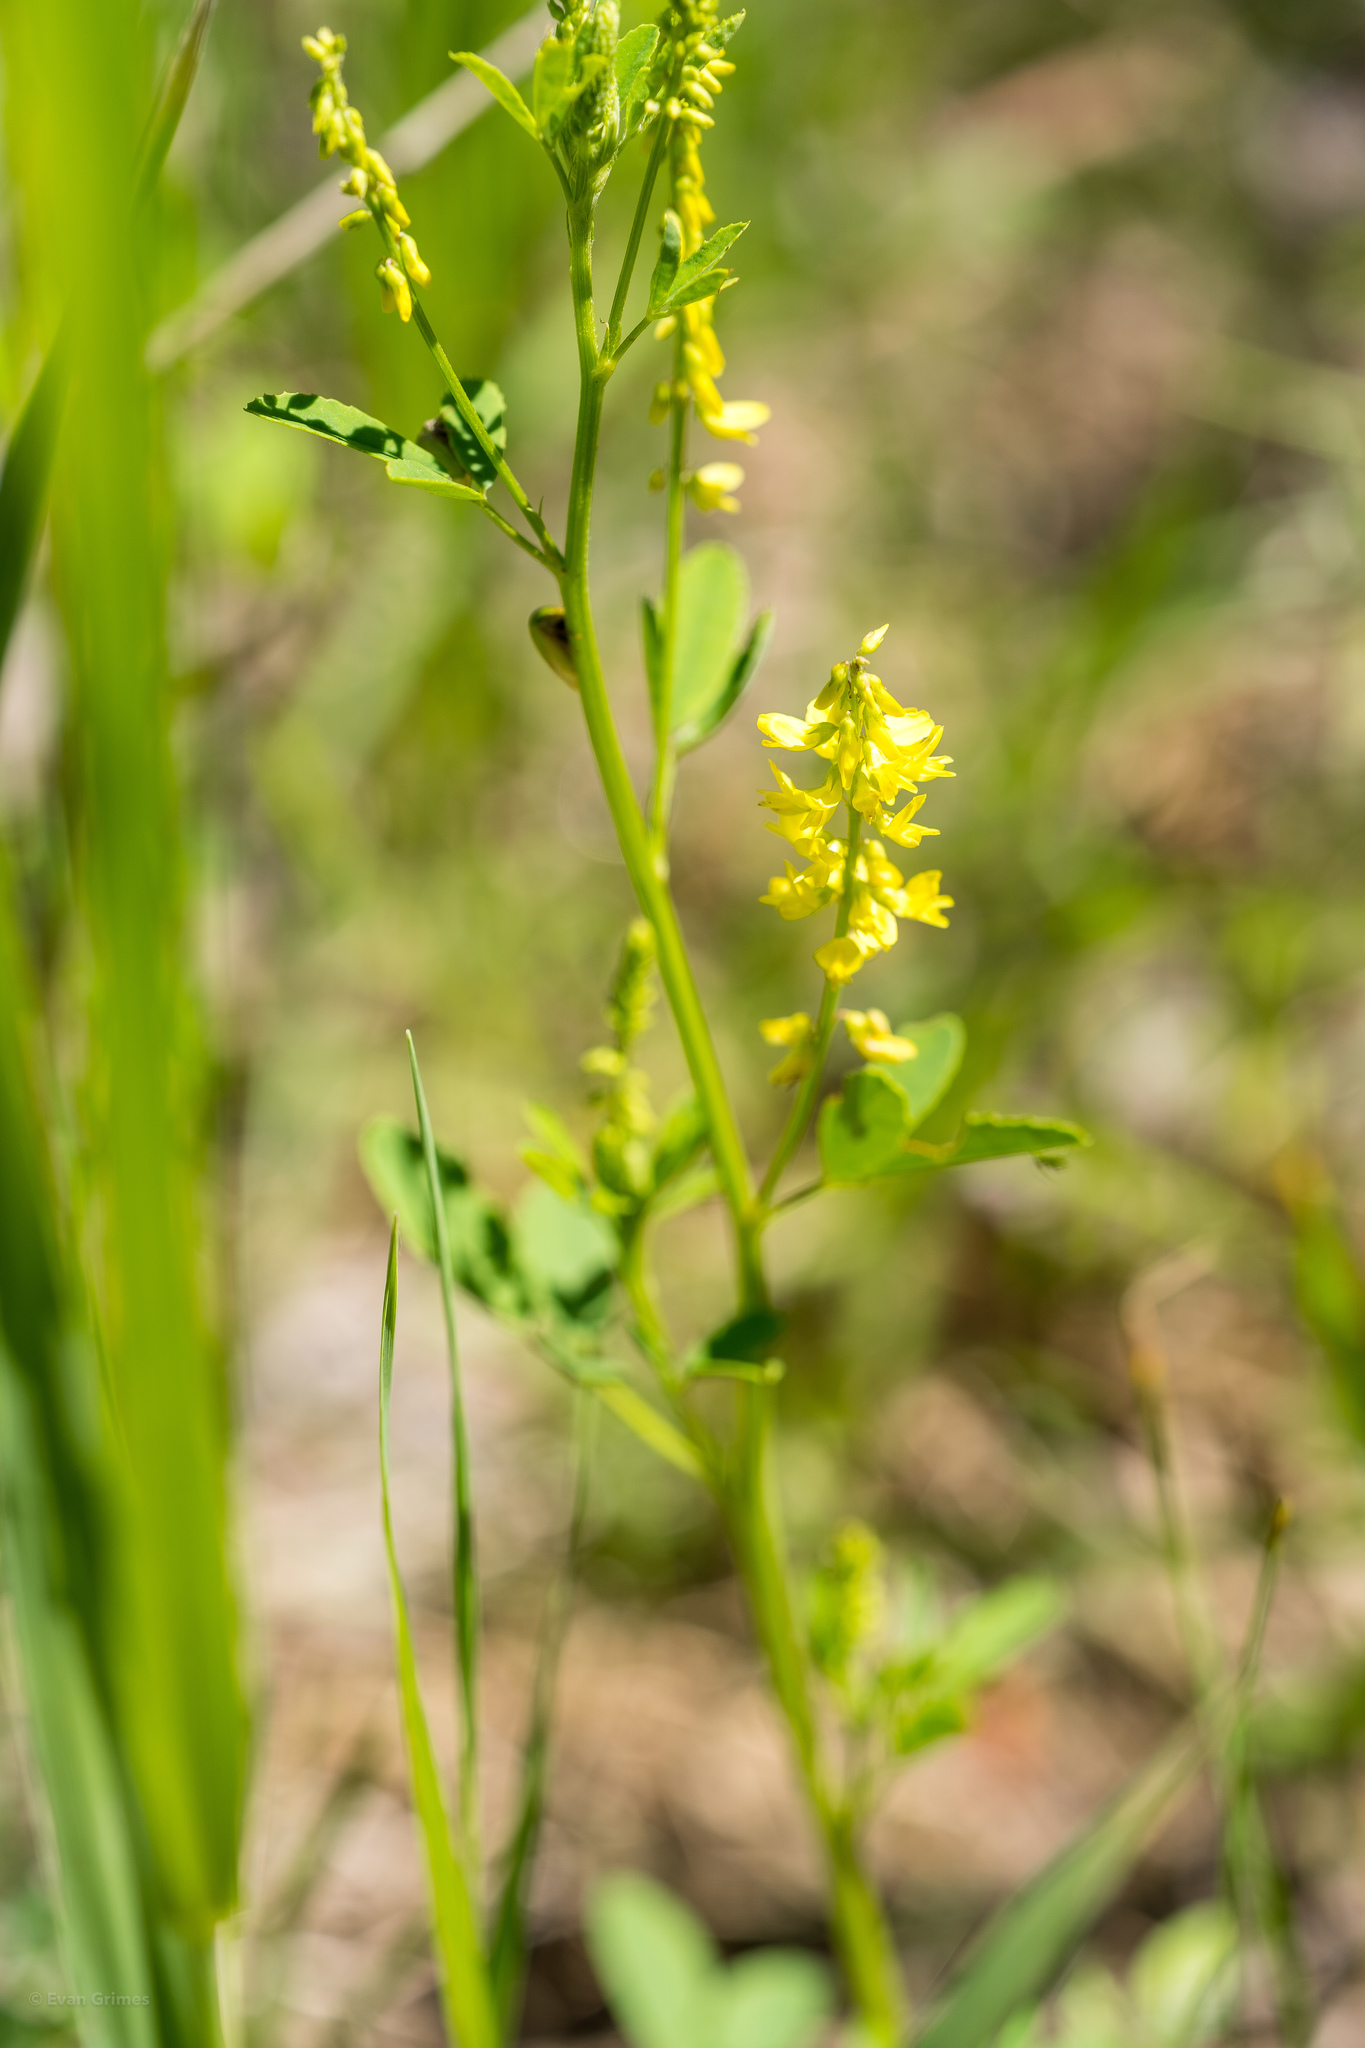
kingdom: Plantae
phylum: Tracheophyta
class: Magnoliopsida
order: Fabales
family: Fabaceae
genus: Melilotus
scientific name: Melilotus officinalis
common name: Sweetclover
